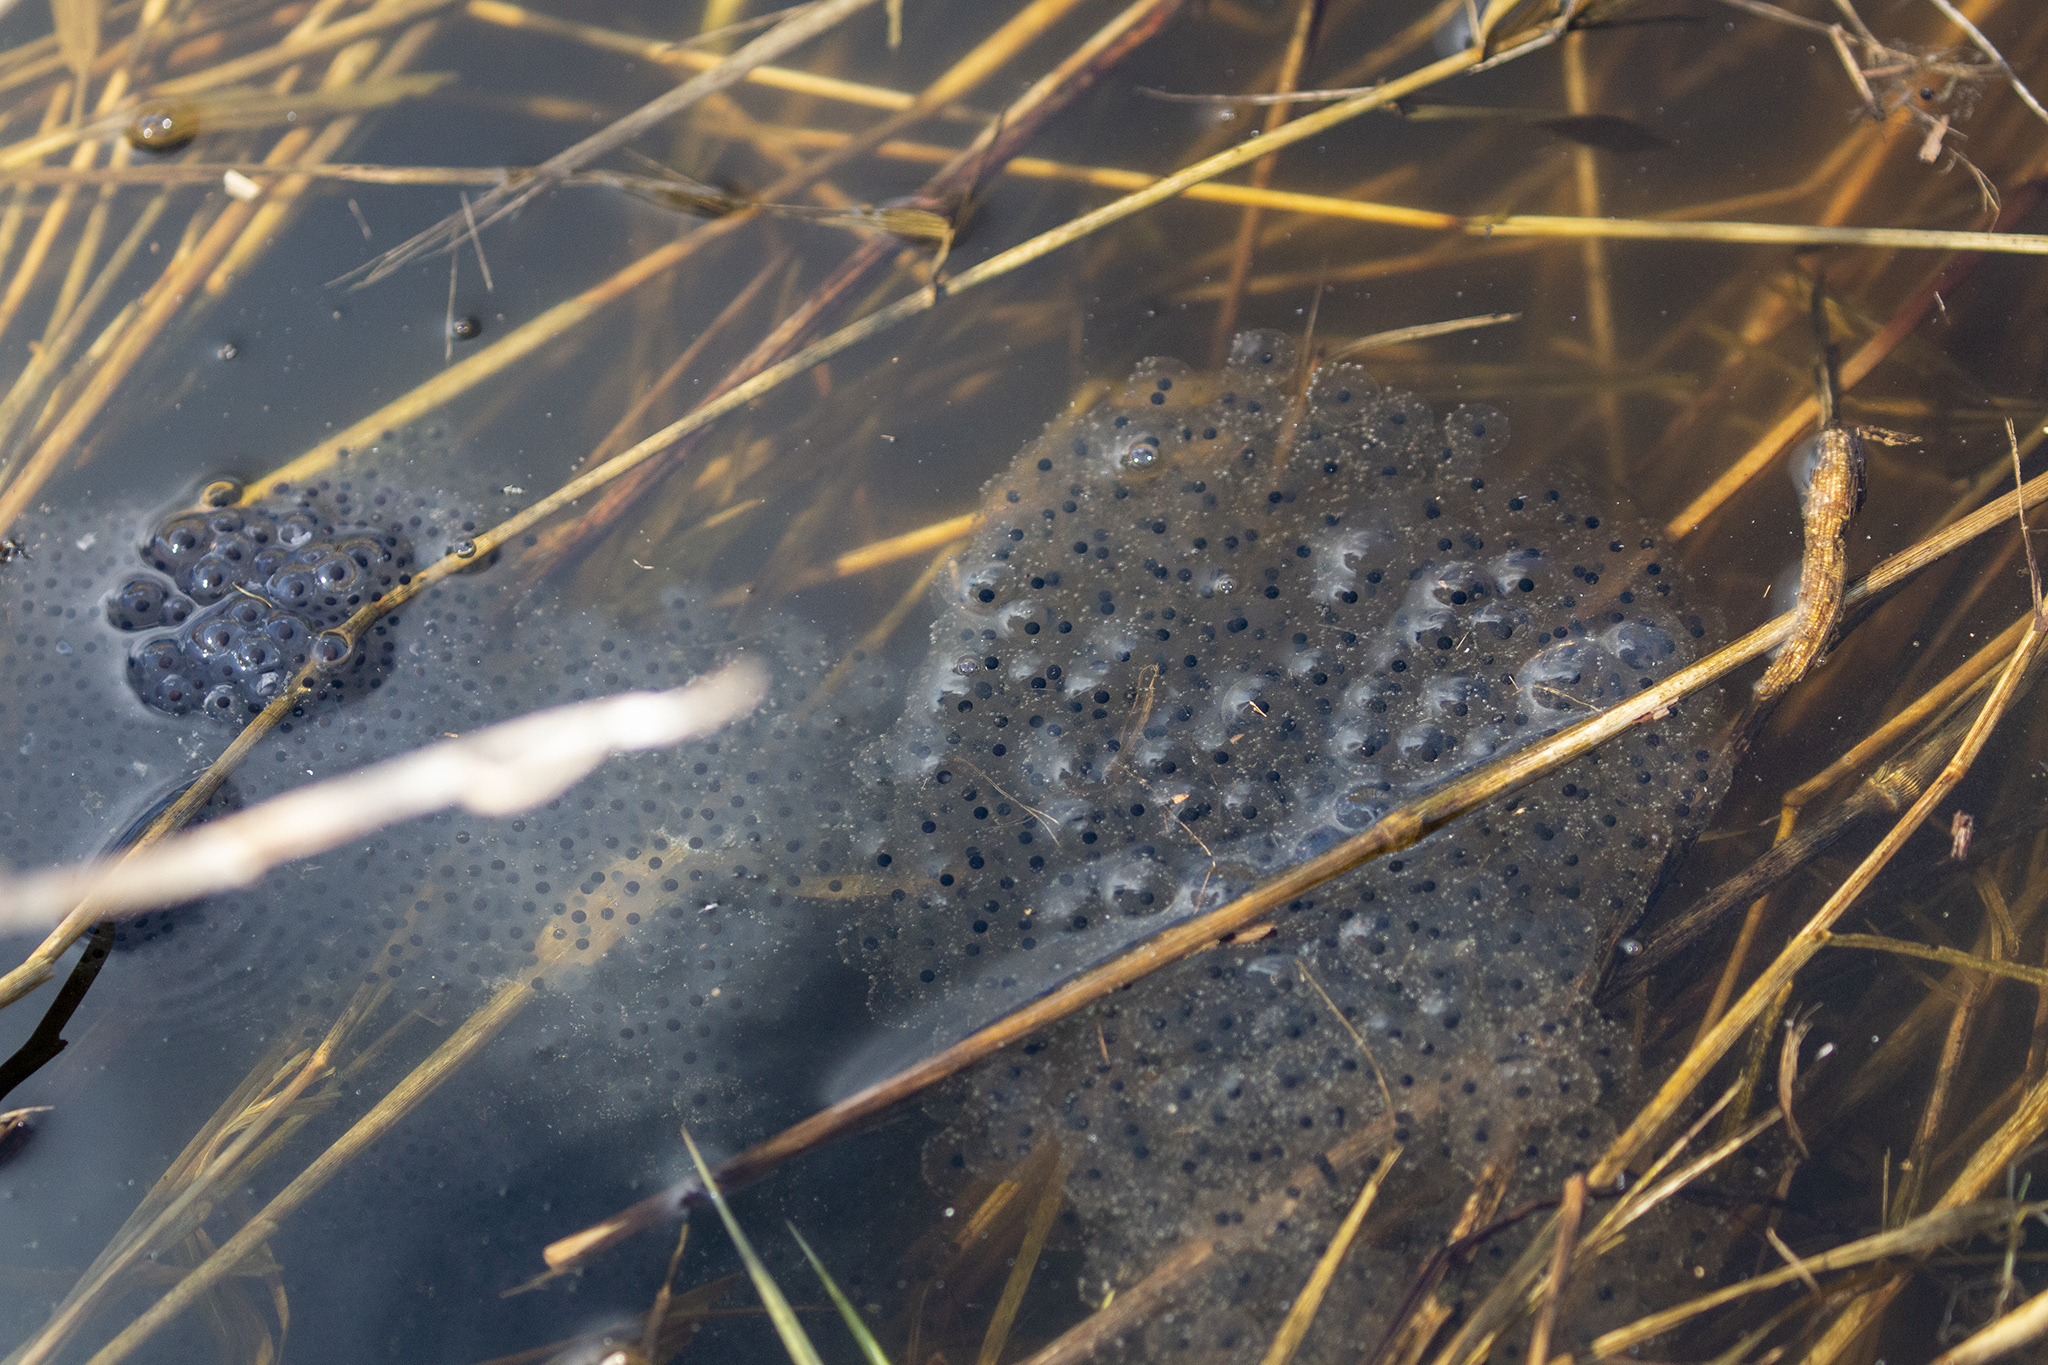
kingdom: Animalia
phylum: Chordata
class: Amphibia
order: Anura
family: Ranidae
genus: Rana
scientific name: Rana temporaria
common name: Common frog
